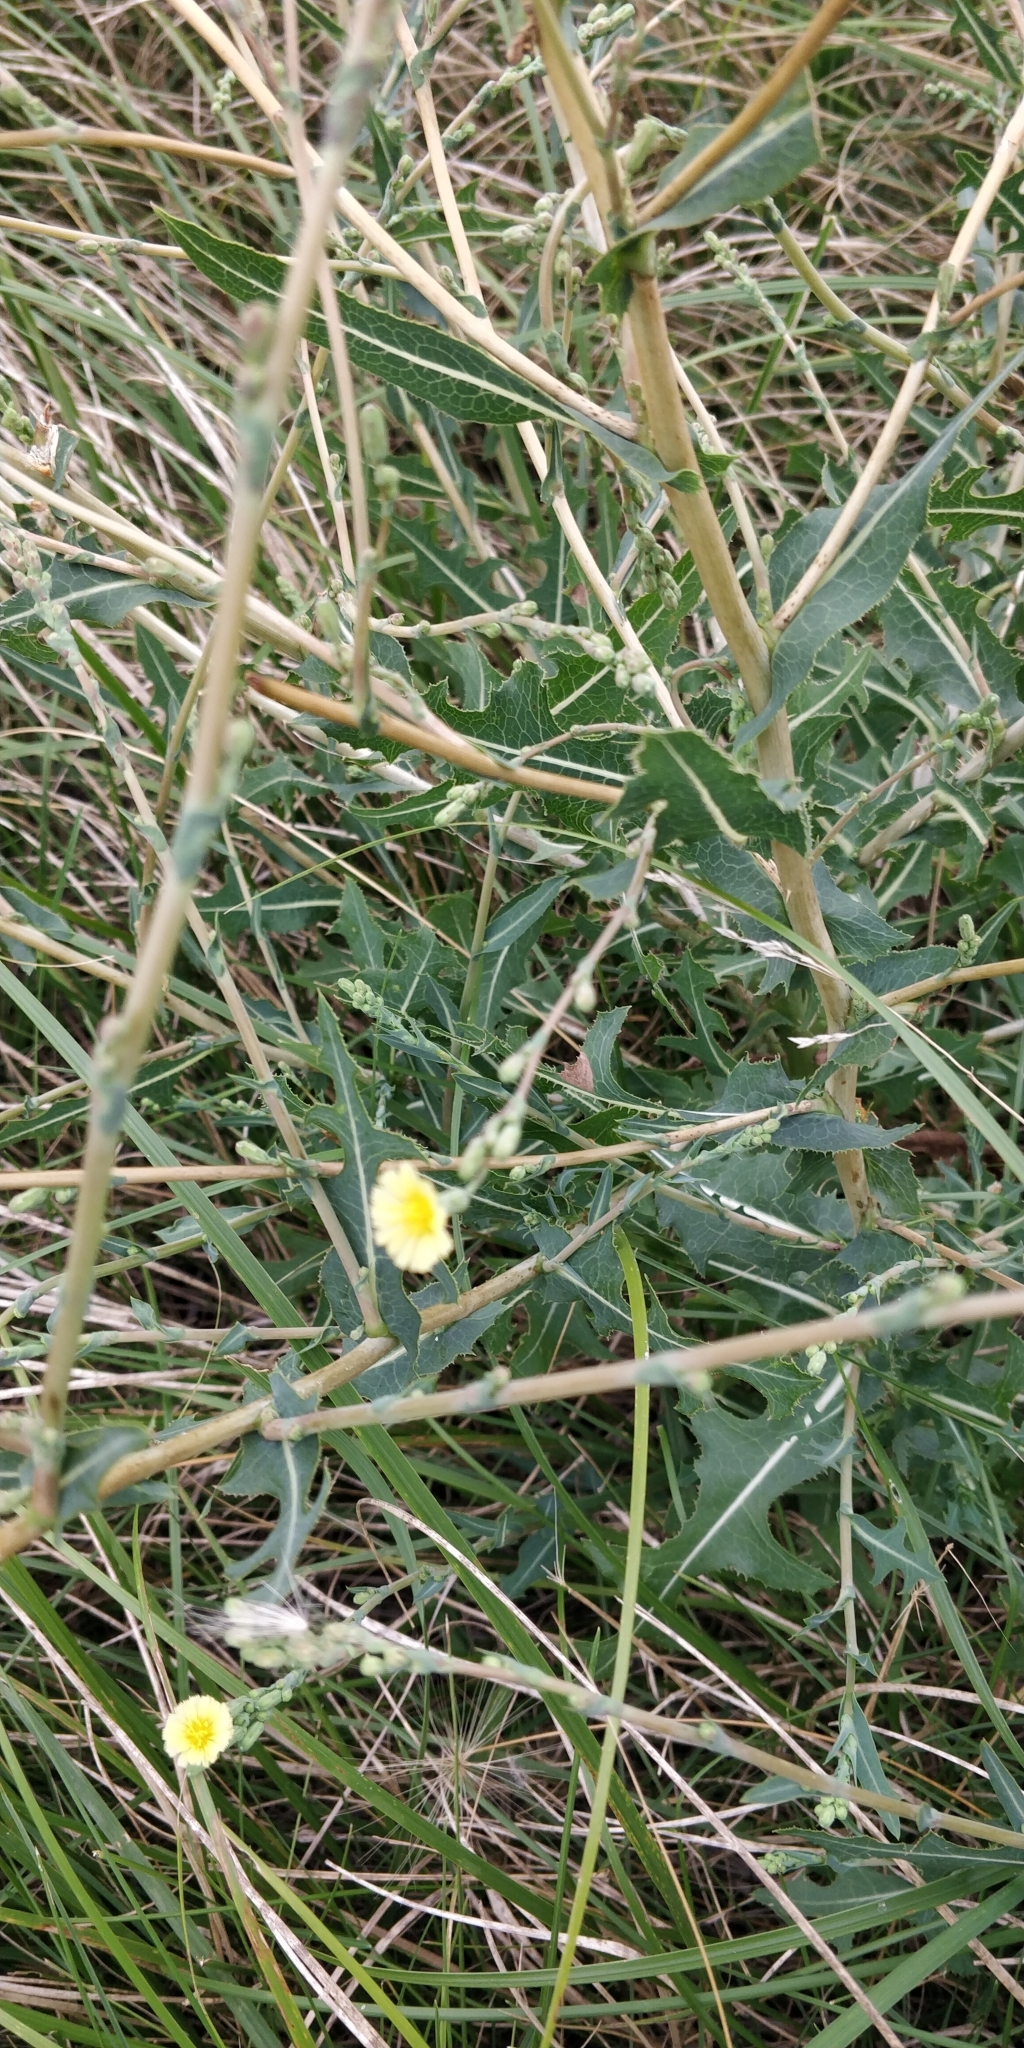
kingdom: Plantae
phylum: Tracheophyta
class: Magnoliopsida
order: Asterales
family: Asteraceae
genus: Lactuca
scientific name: Lactuca serriola
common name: Prickly lettuce
